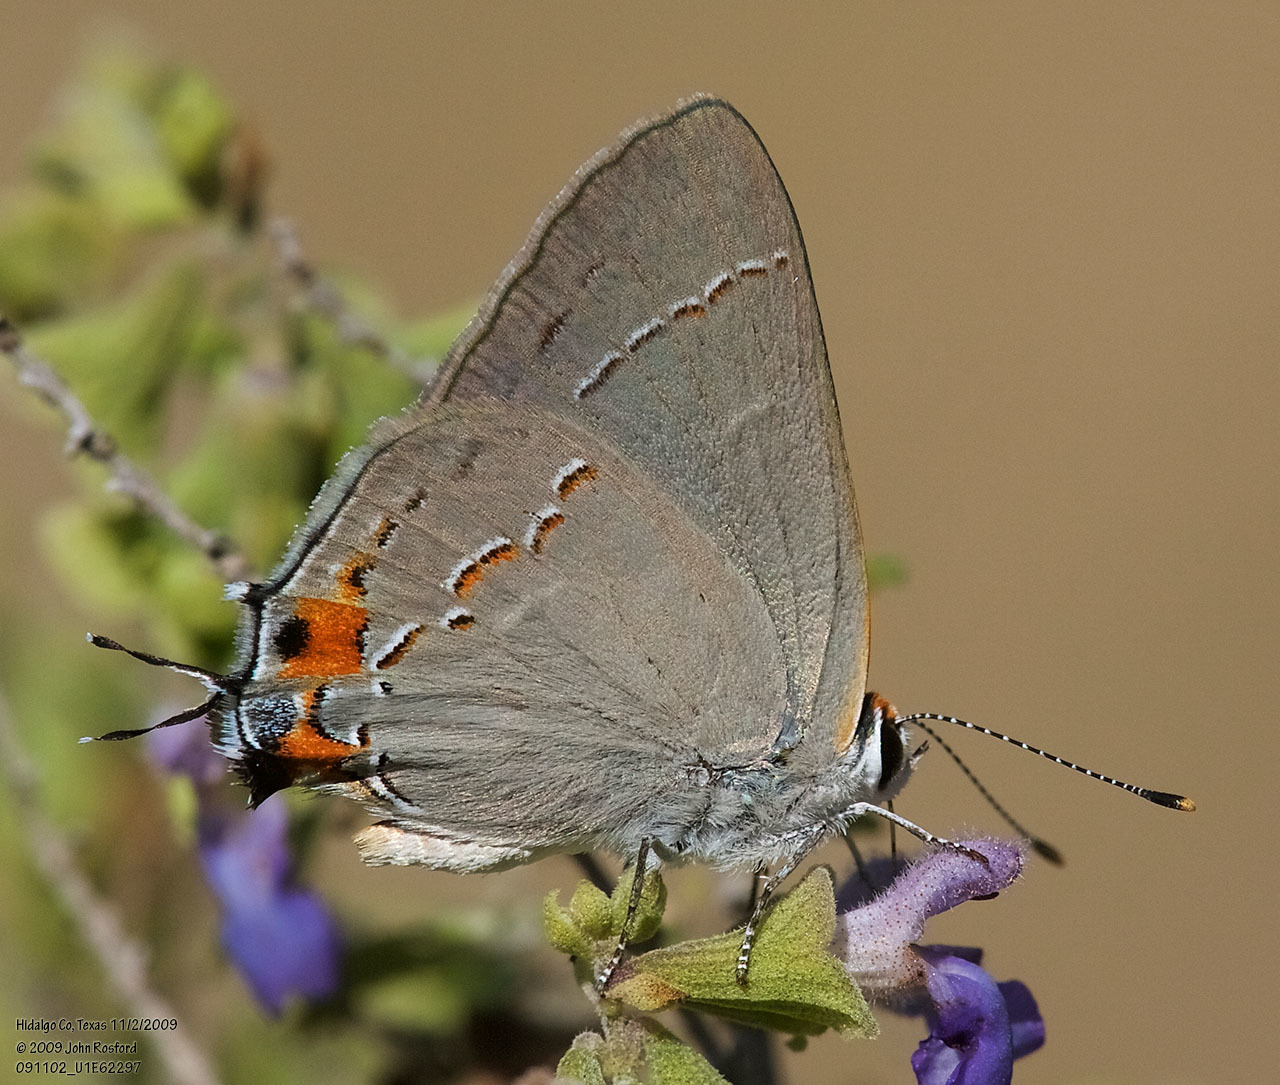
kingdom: Animalia
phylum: Arthropoda
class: Insecta
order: Lepidoptera
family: Lycaenidae
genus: Strymon
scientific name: Strymon melinus
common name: Gray hairstreak
